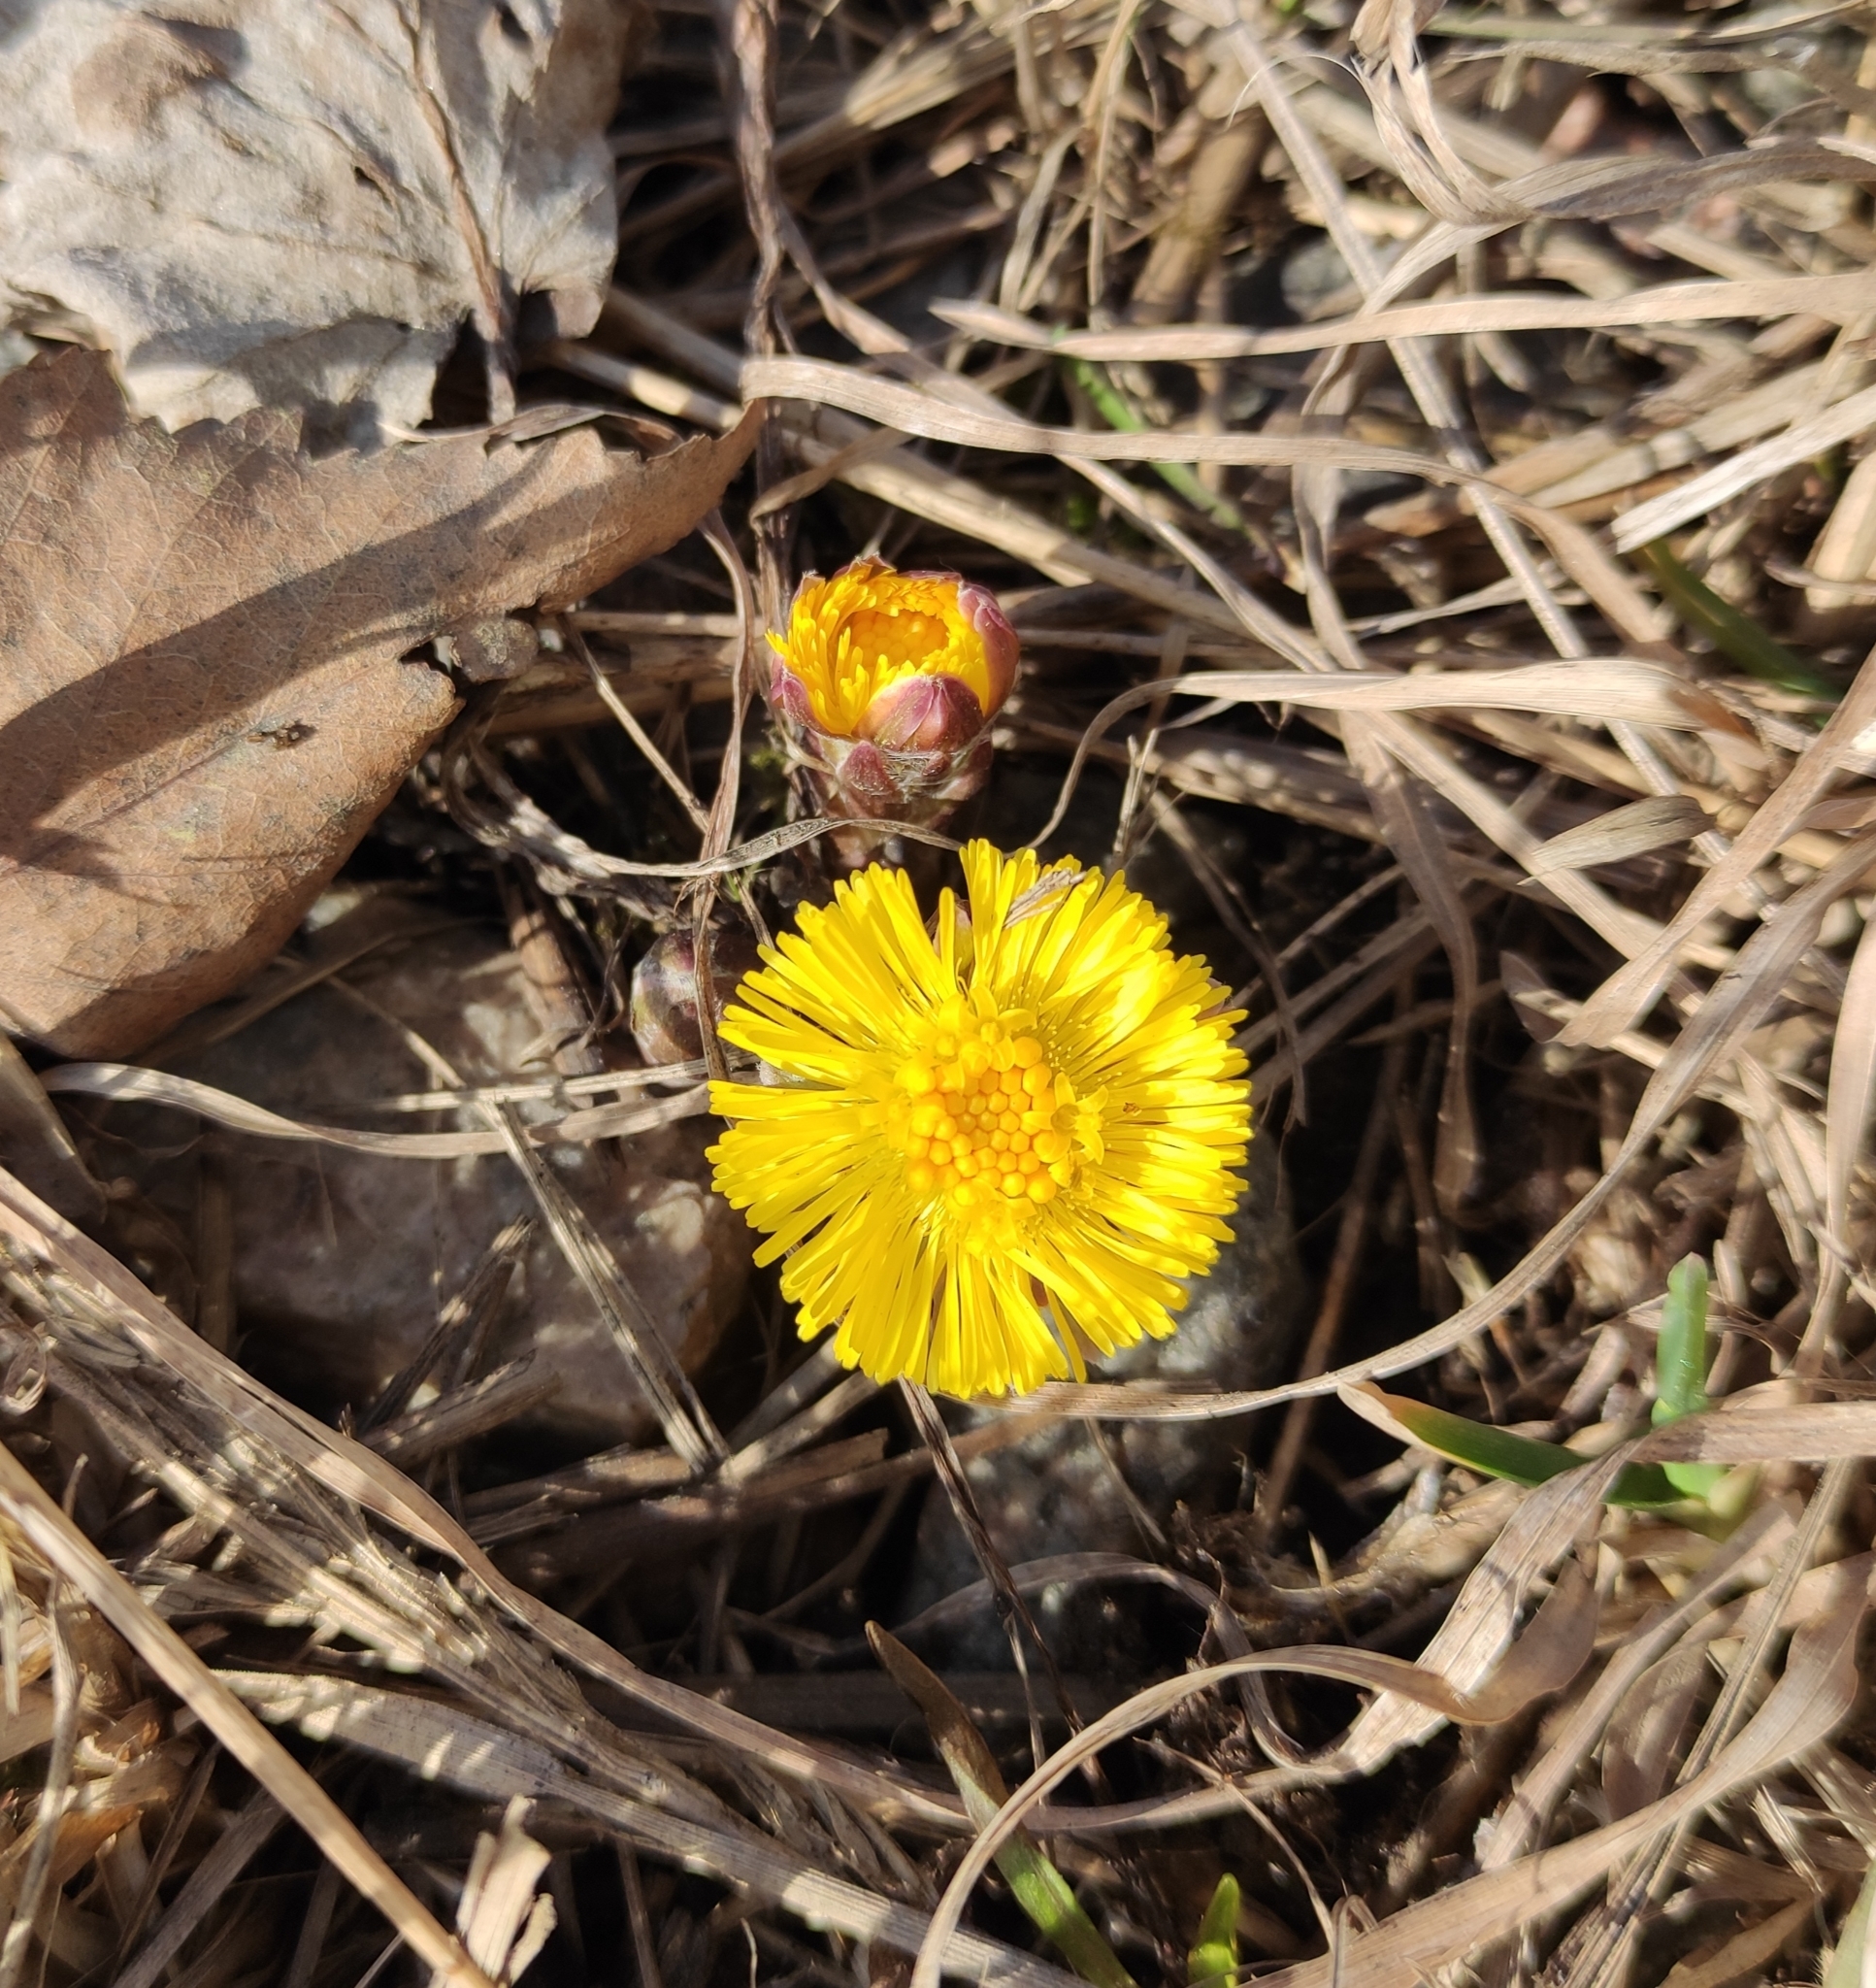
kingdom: Plantae
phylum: Tracheophyta
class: Magnoliopsida
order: Asterales
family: Asteraceae
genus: Tussilago
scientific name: Tussilago farfara
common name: Coltsfoot
